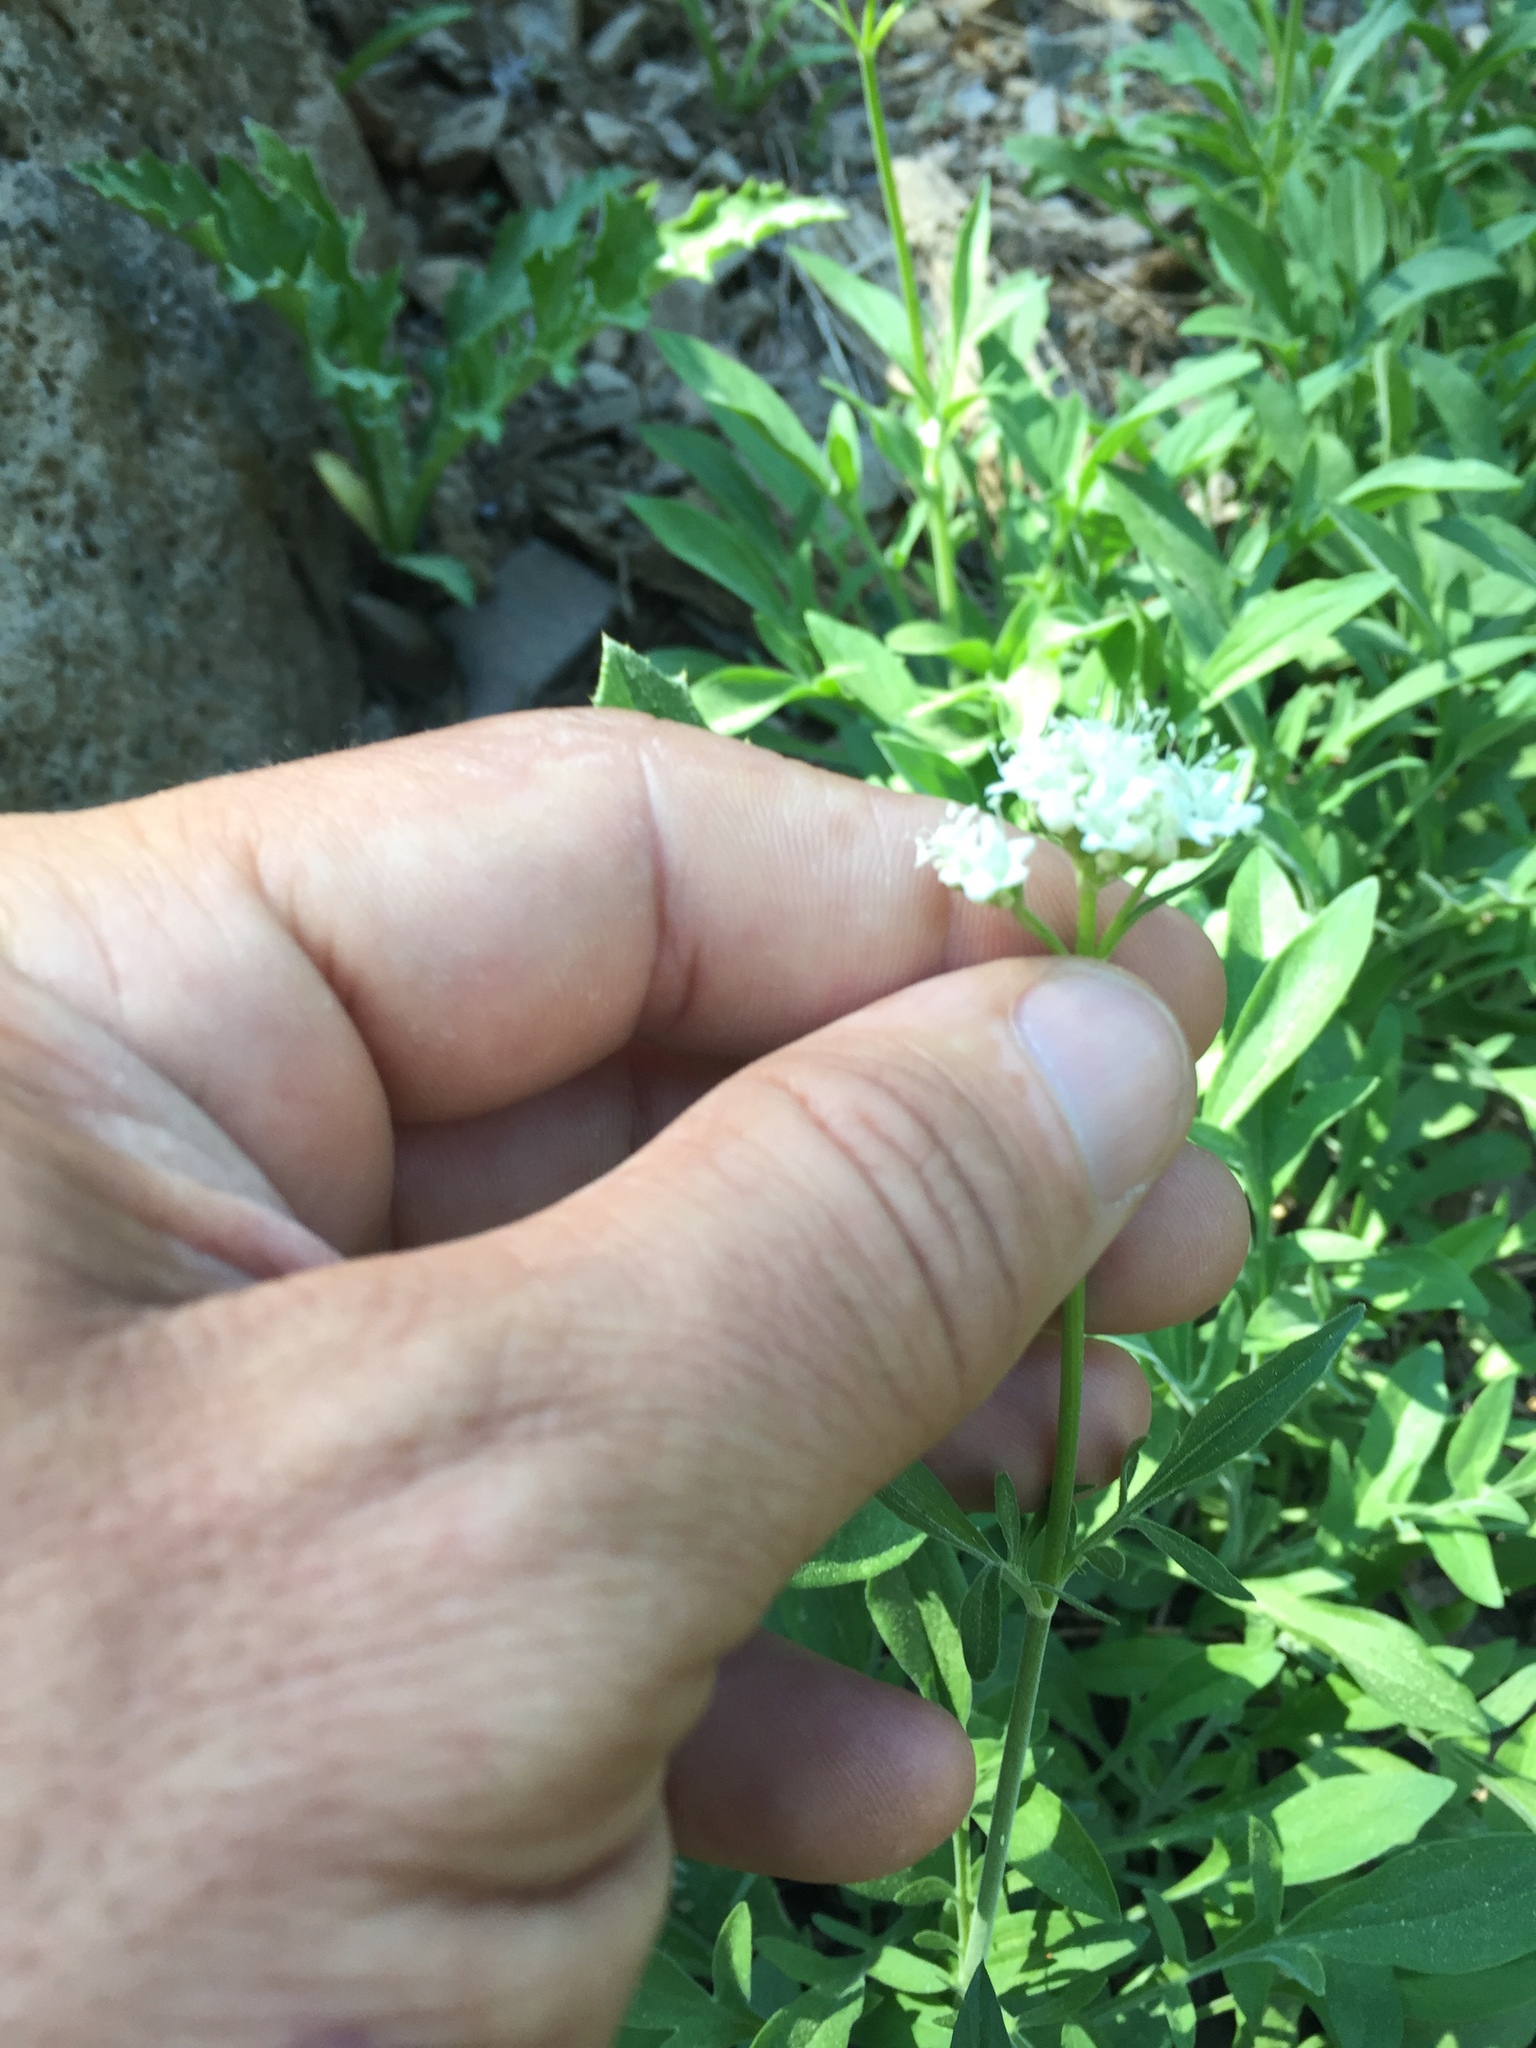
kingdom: Plantae
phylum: Tracheophyta
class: Magnoliopsida
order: Dipsacales
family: Caprifoliaceae
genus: Valeriana
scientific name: Valeriana californica
